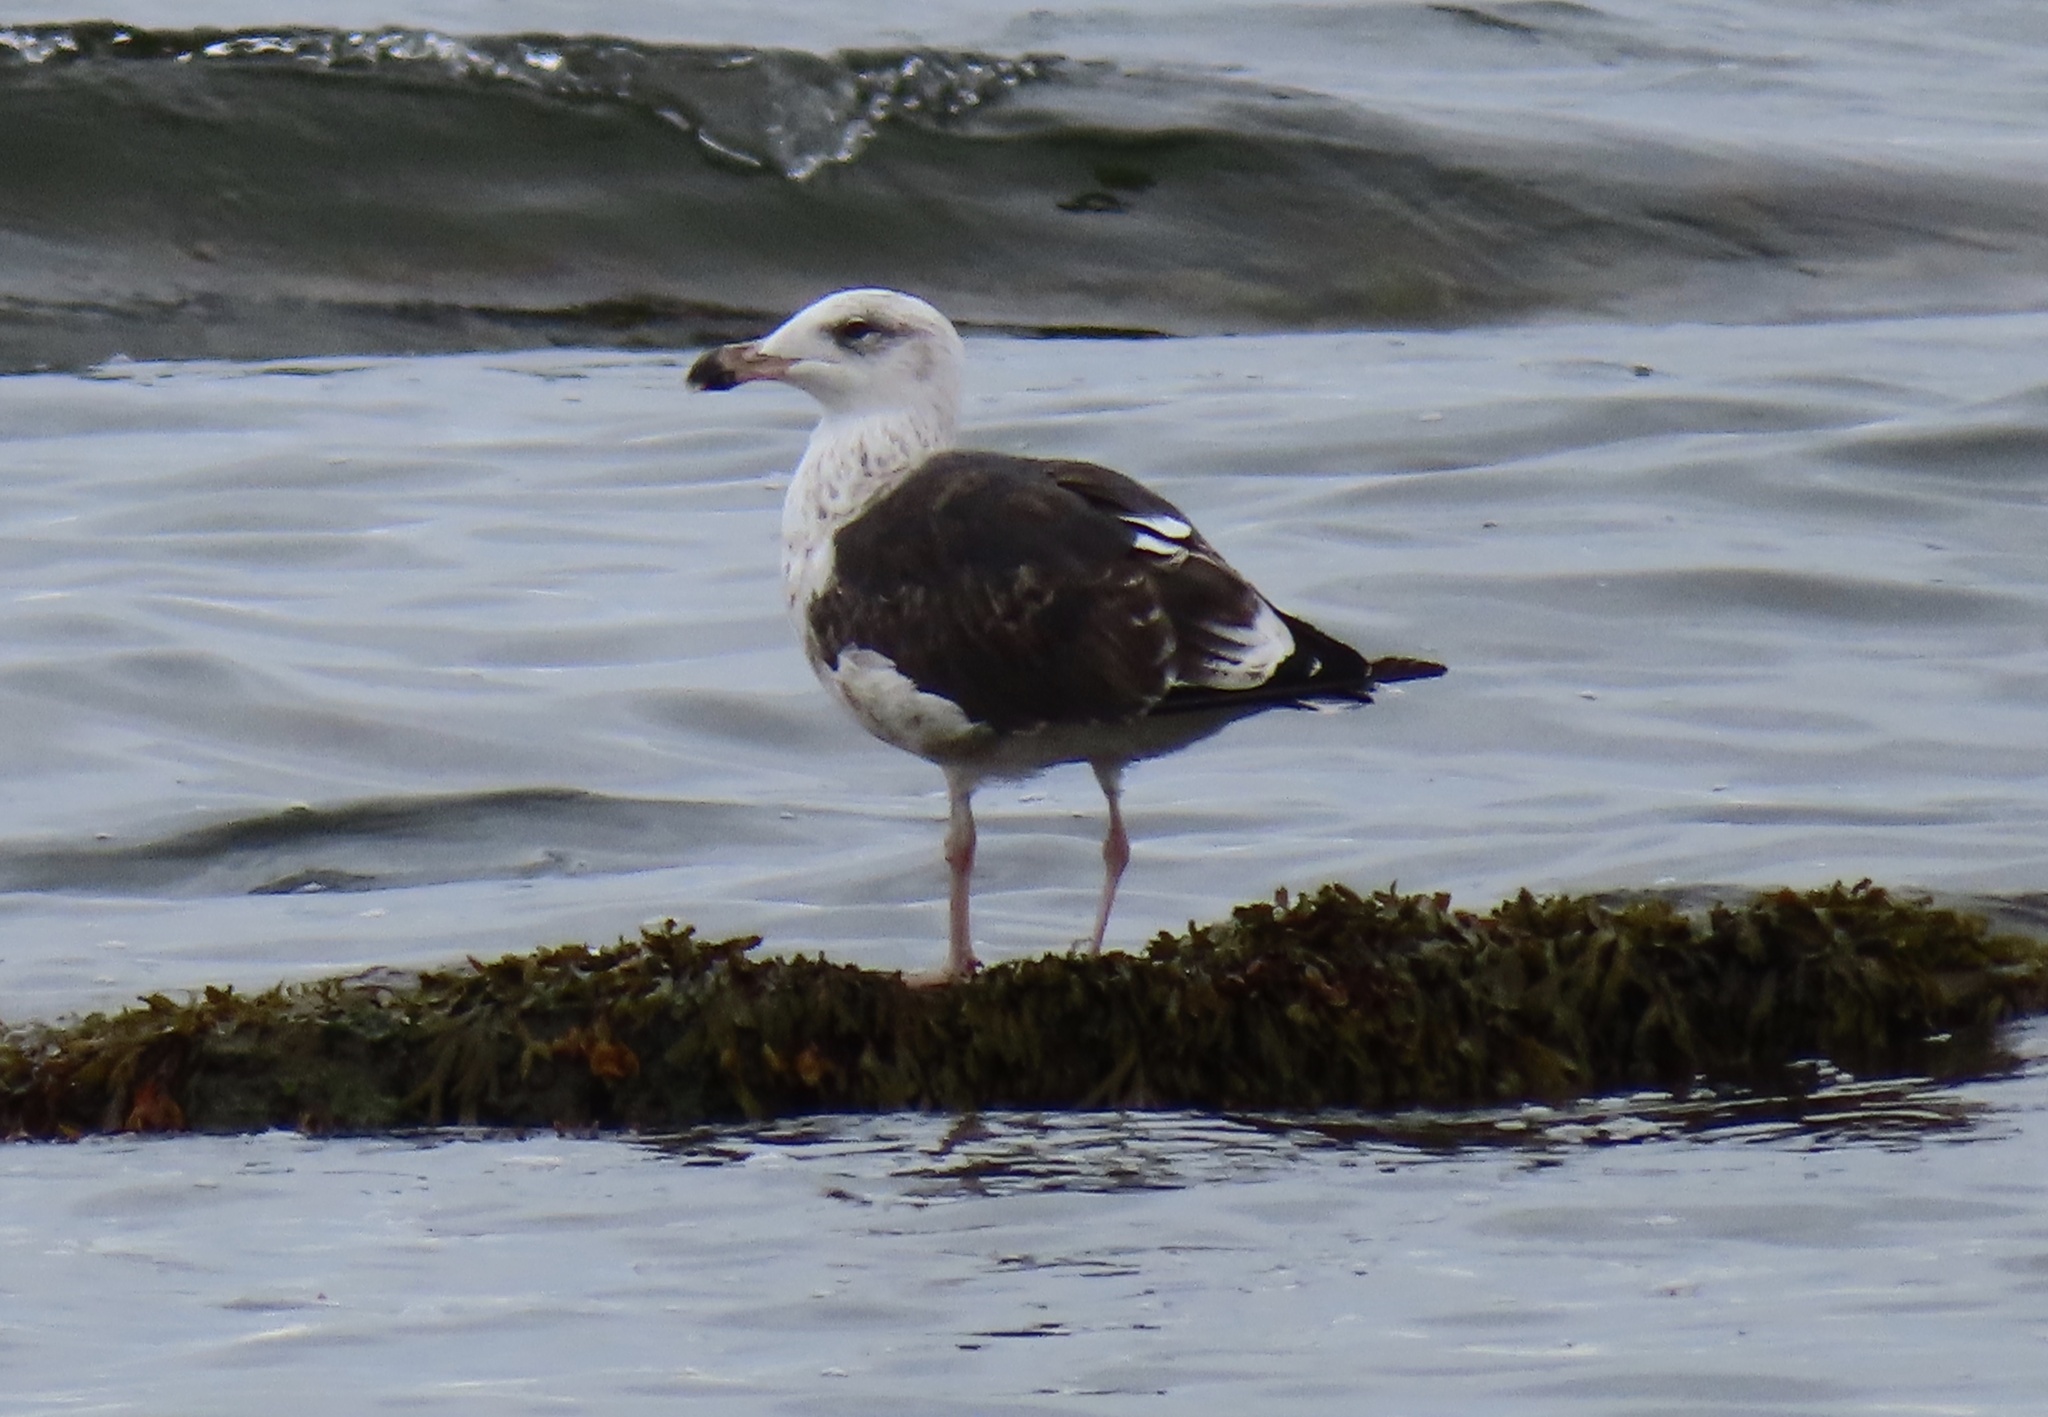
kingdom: Animalia
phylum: Chordata
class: Aves
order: Charadriiformes
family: Laridae
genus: Larus
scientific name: Larus marinus
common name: Great black-backed gull
